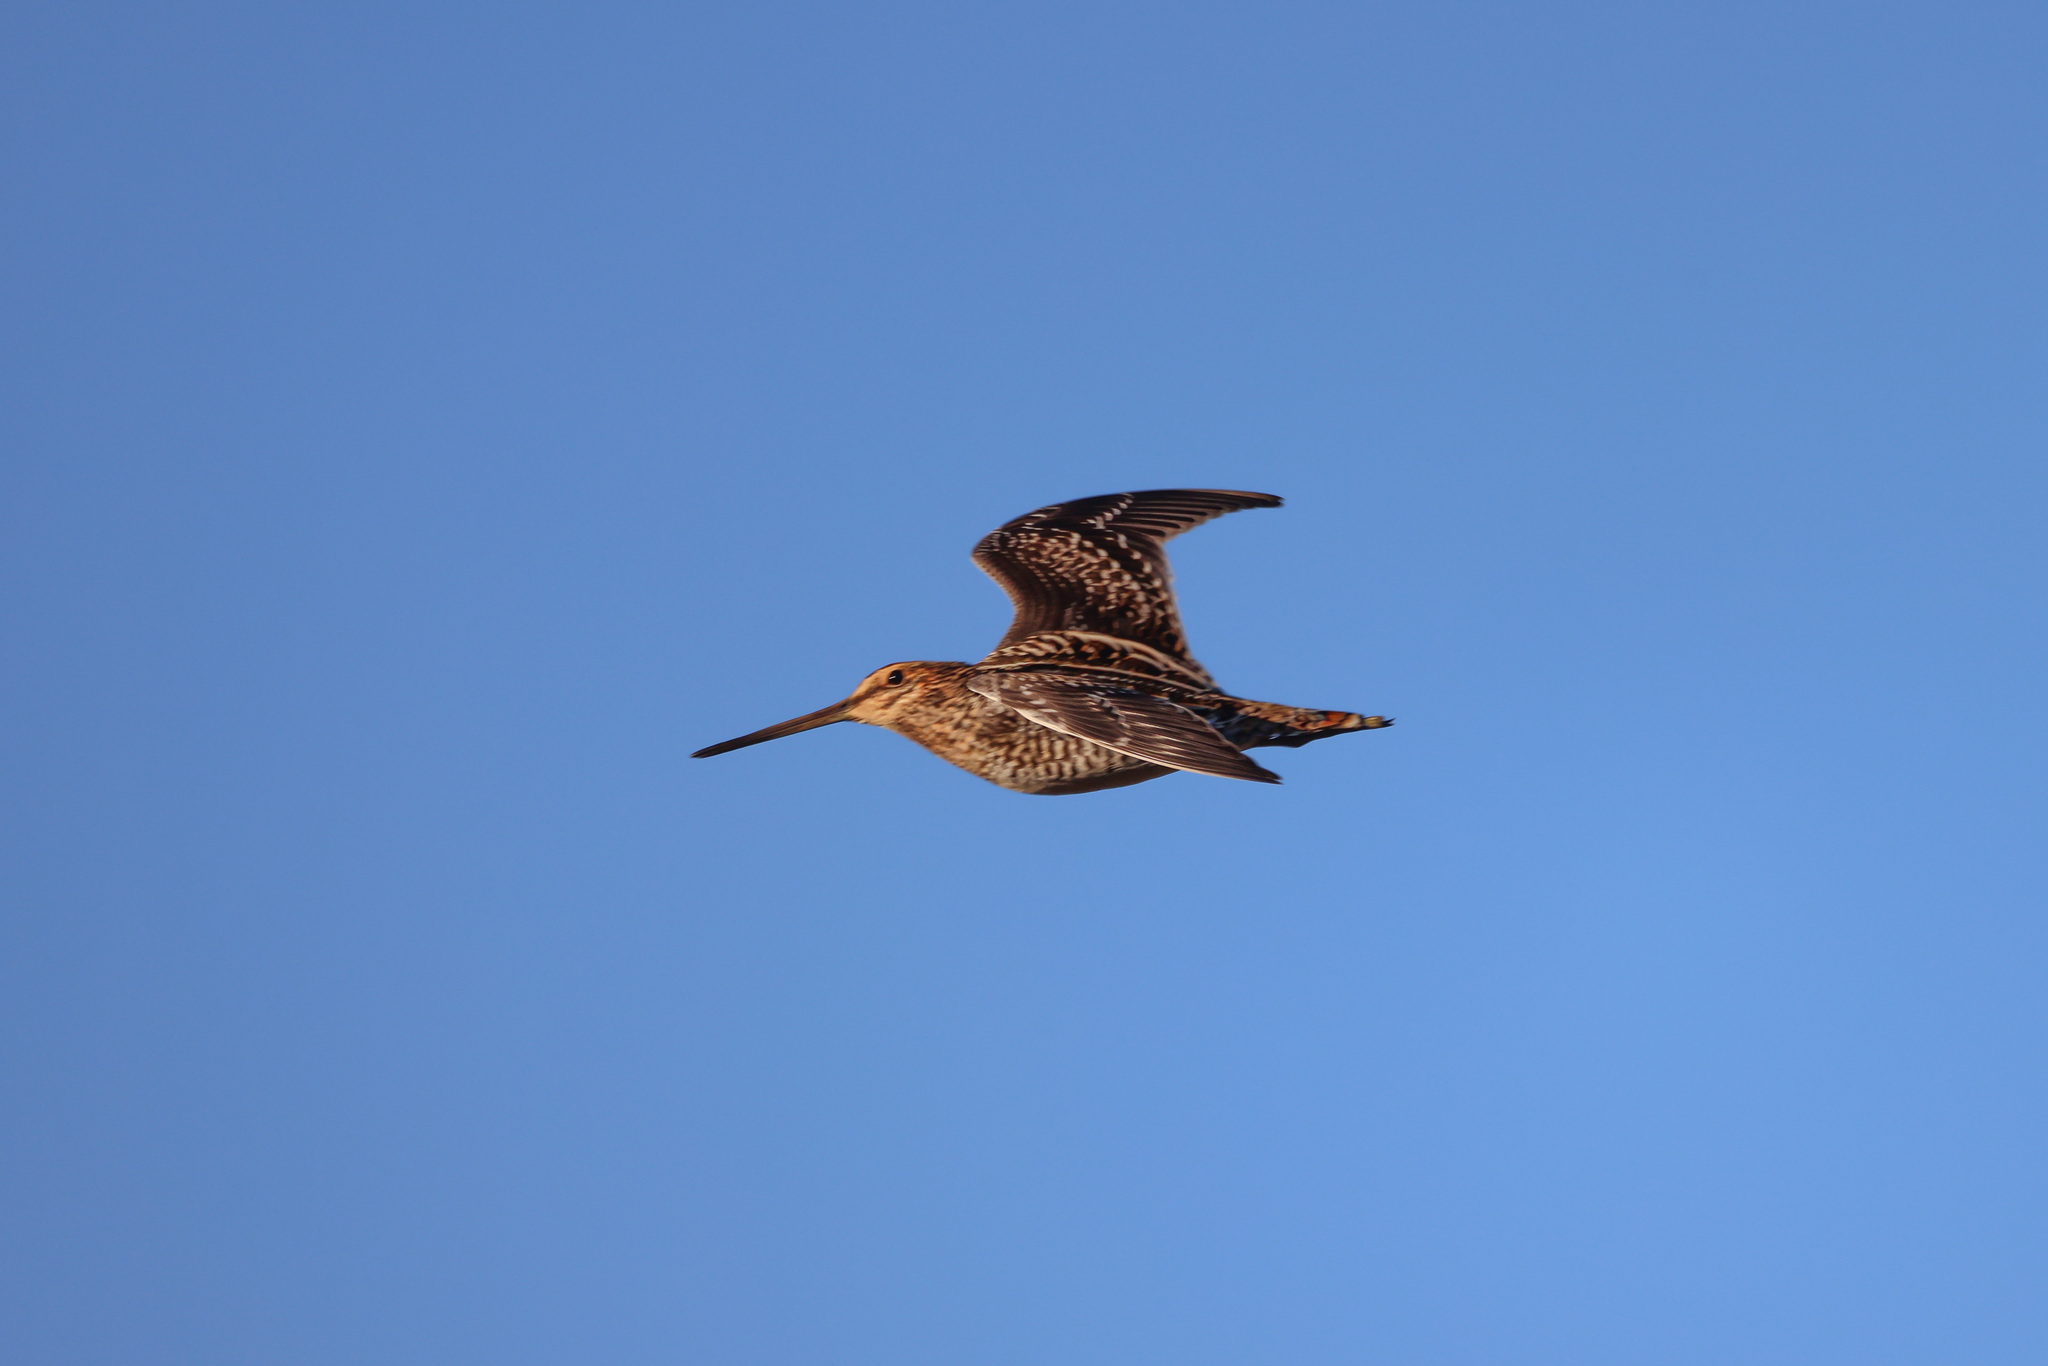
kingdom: Animalia
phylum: Chordata
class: Aves
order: Charadriiformes
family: Scolopacidae
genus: Gallinago
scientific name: Gallinago delicata
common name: Wilson's snipe
